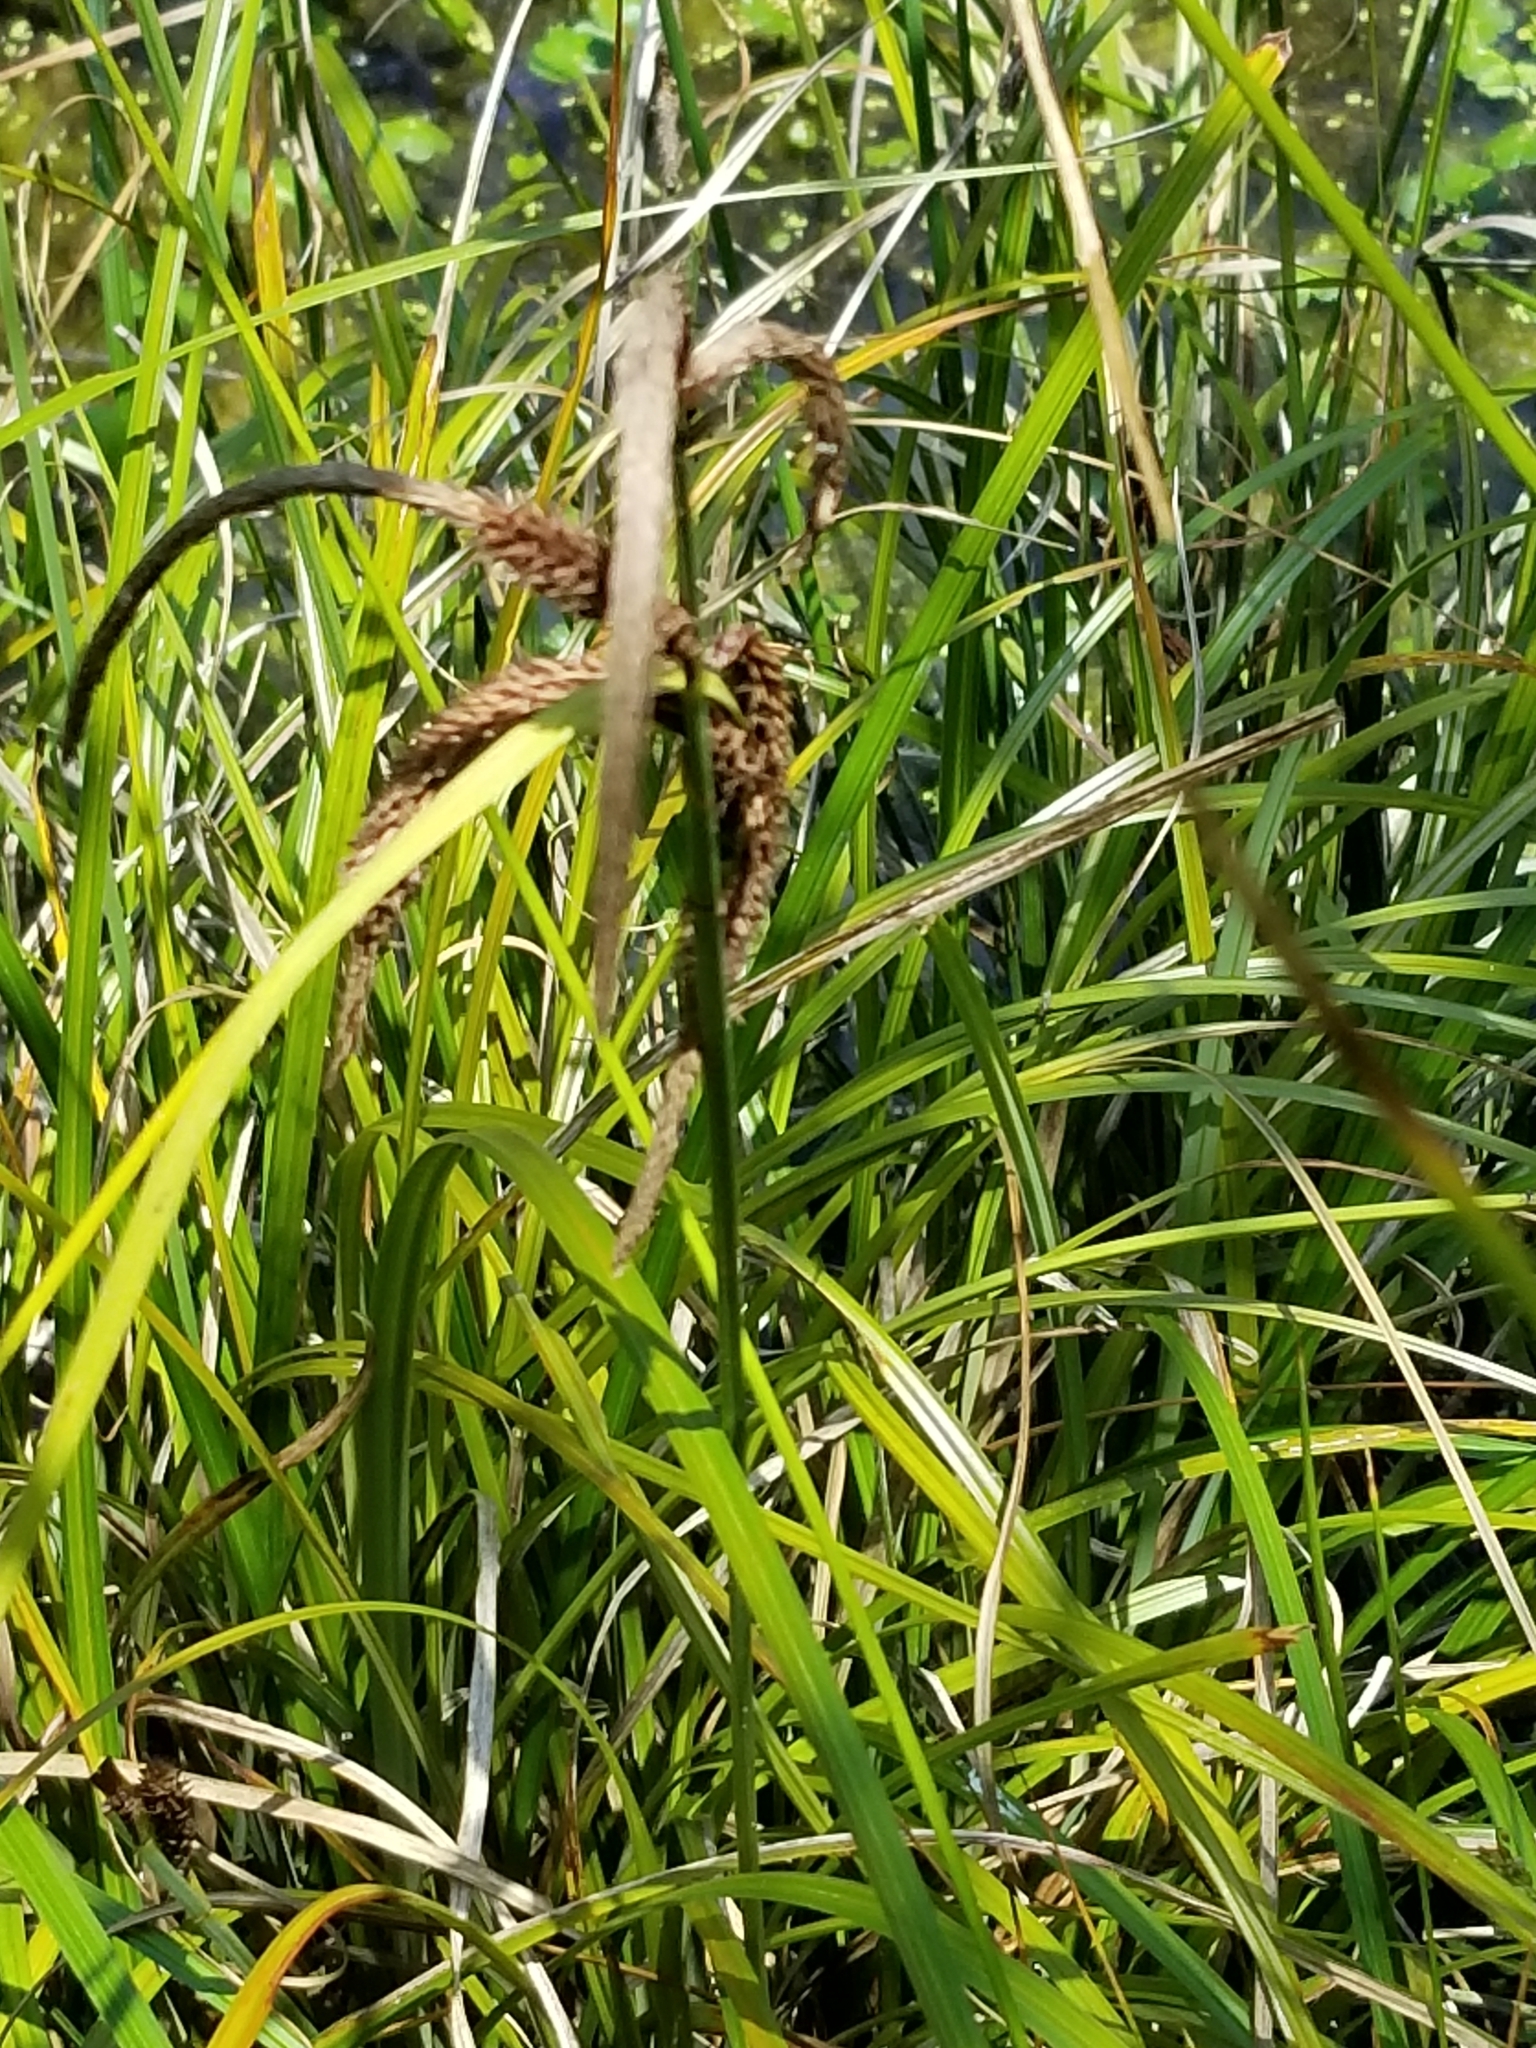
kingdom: Plantae
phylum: Tracheophyta
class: Liliopsida
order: Poales
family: Cyperaceae
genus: Carex
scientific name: Carex obnupta
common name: Slough sedge
